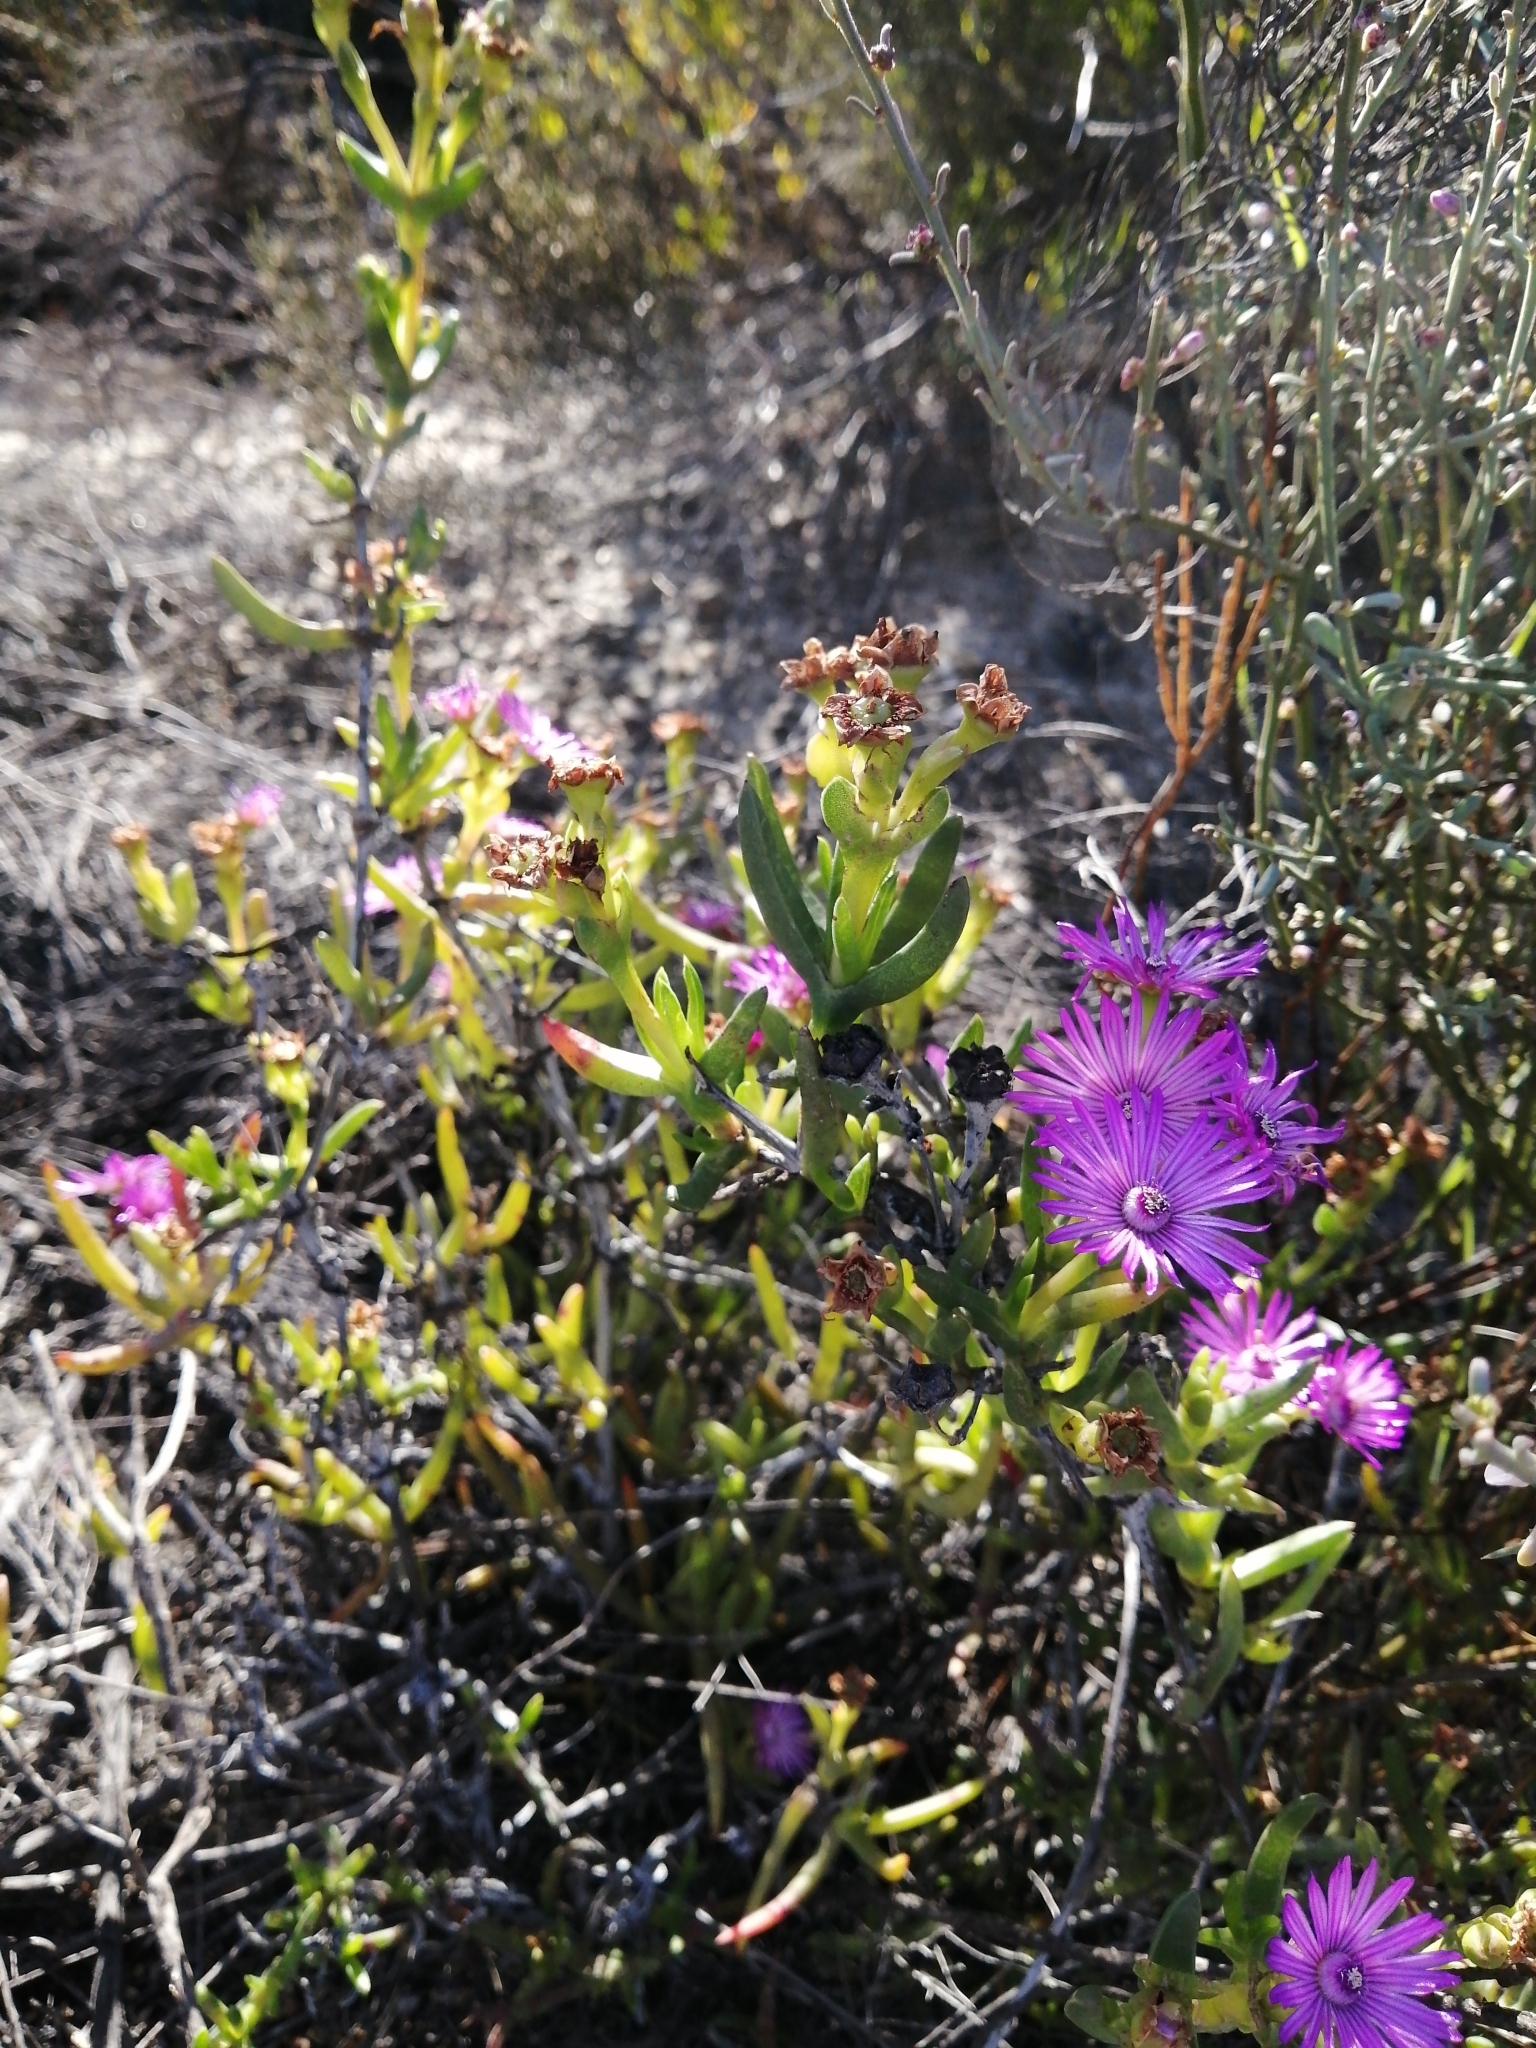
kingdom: Plantae
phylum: Tracheophyta
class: Magnoliopsida
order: Caryophyllales
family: Aizoaceae
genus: Ruschia
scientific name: Ruschia diversifolia
